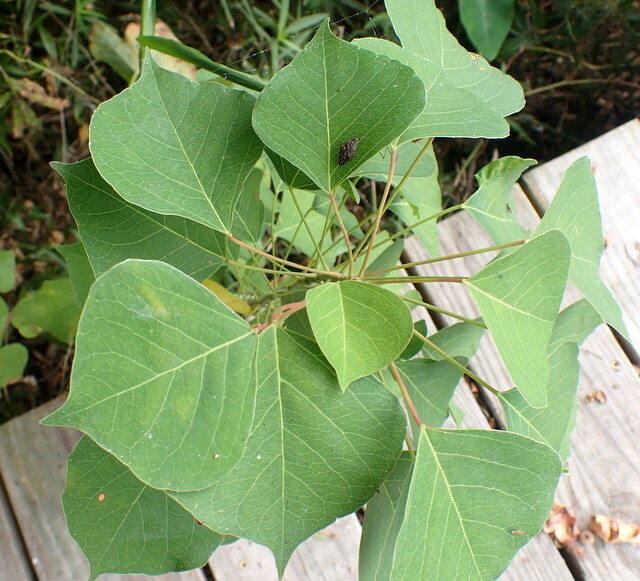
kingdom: Plantae
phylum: Tracheophyta
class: Magnoliopsida
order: Malpighiales
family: Euphorbiaceae
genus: Triadica
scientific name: Triadica sebifera
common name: Chinese tallow
